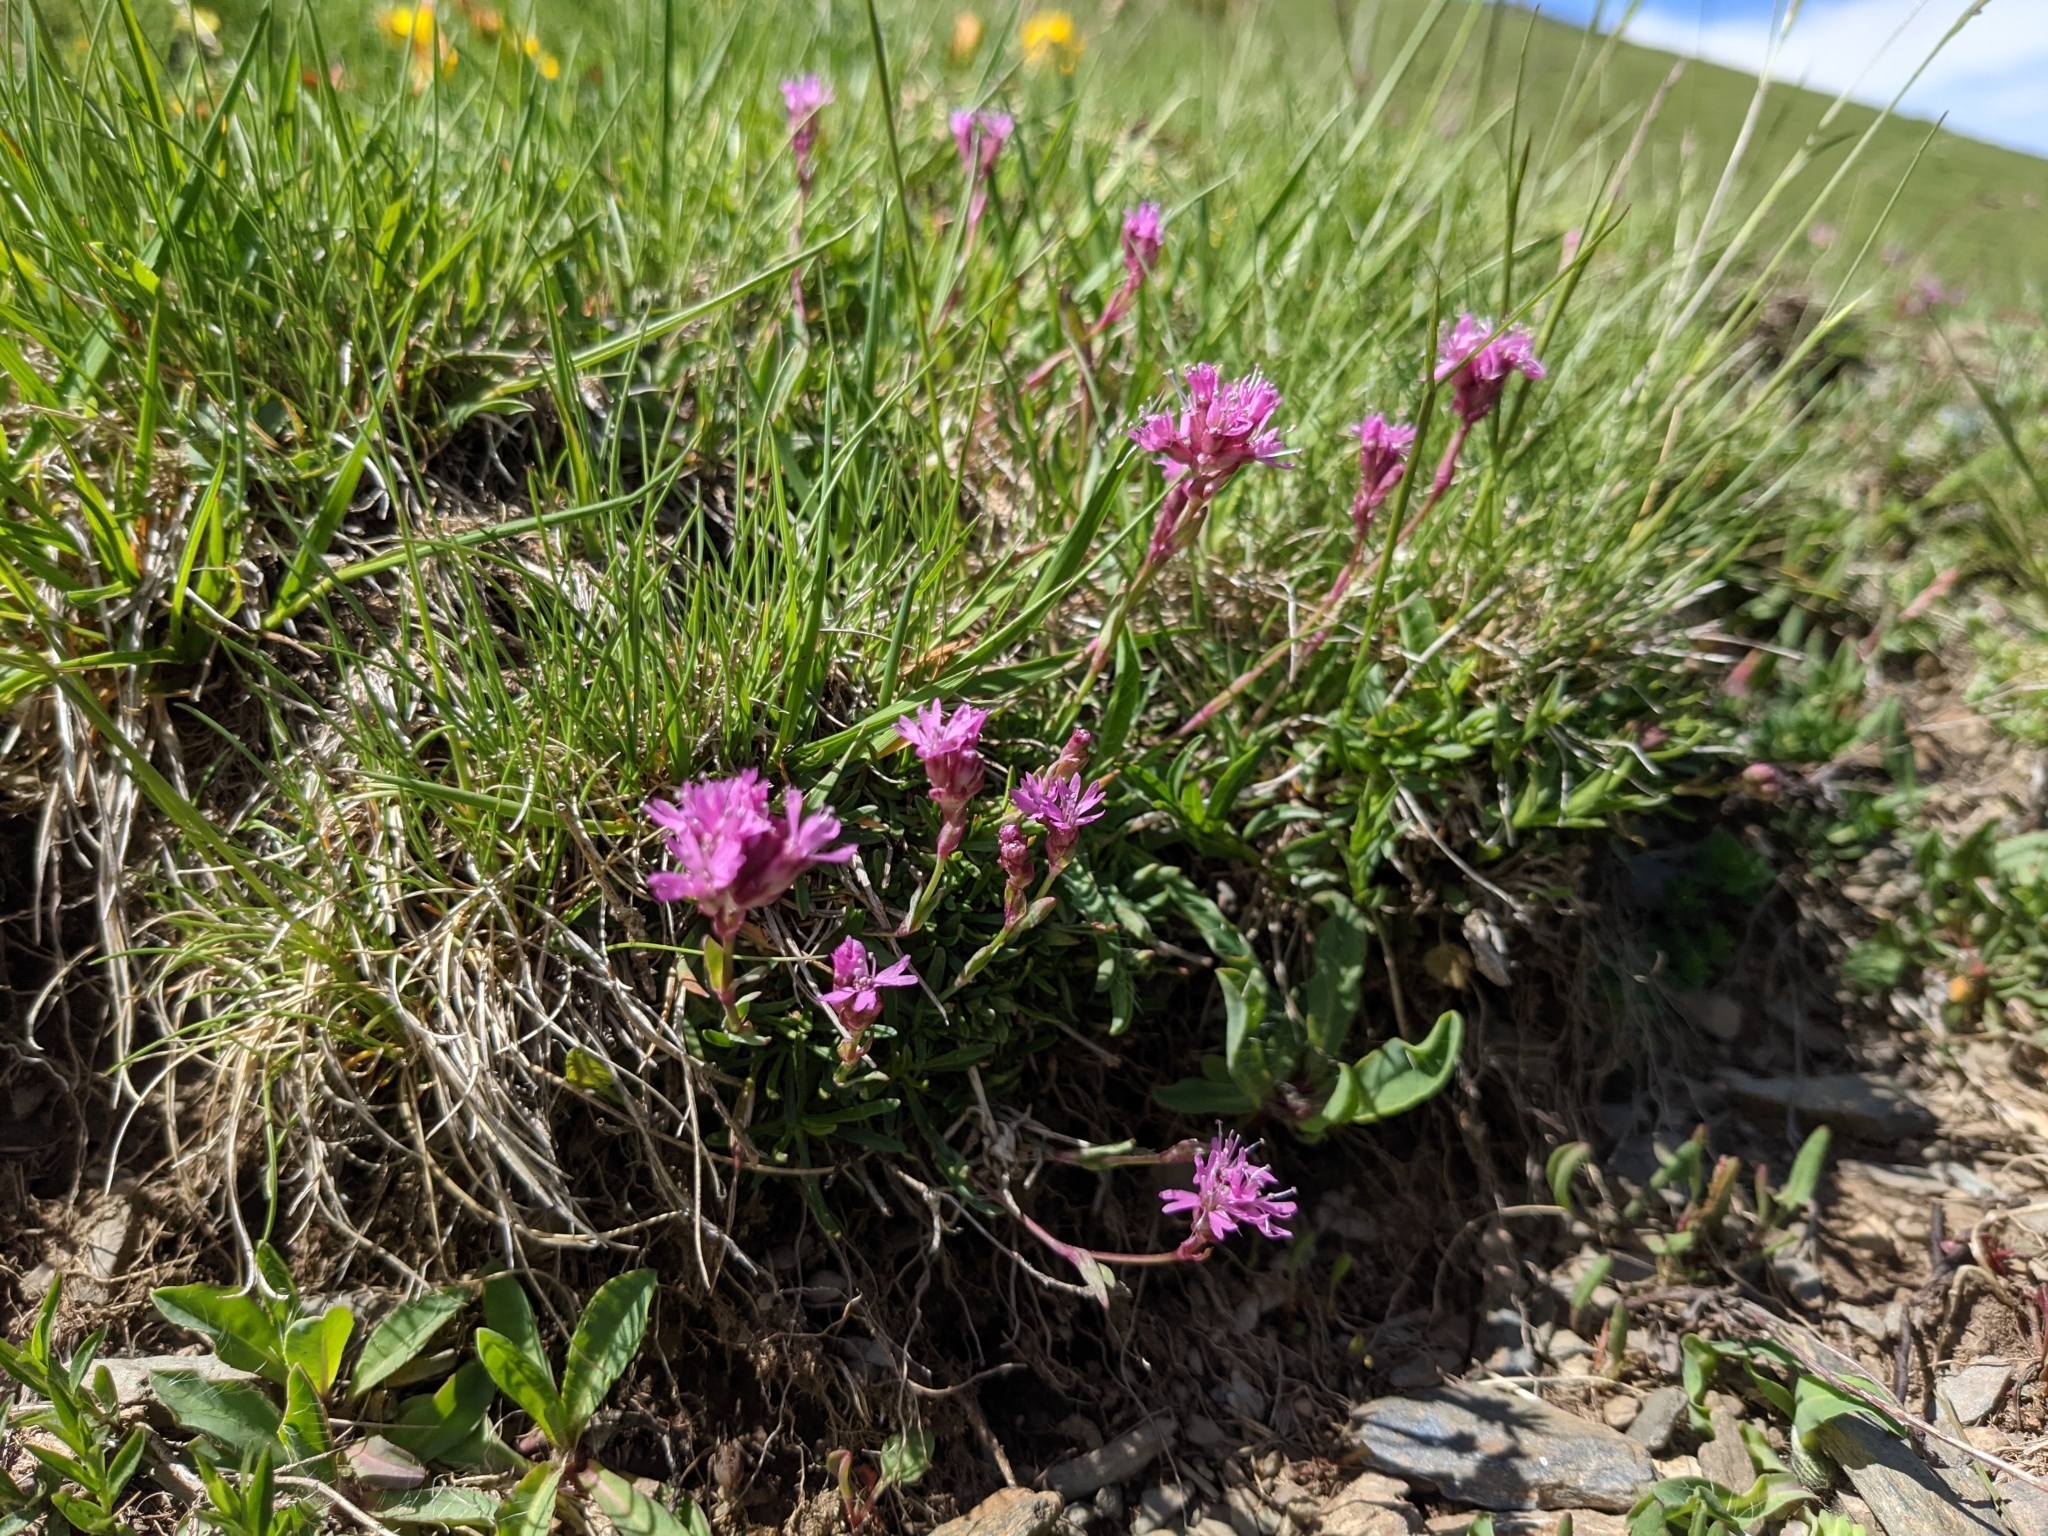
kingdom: Plantae
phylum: Tracheophyta
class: Magnoliopsida
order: Caryophyllales
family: Caryophyllaceae
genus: Viscaria
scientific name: Viscaria alpina
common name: Alpine campion
